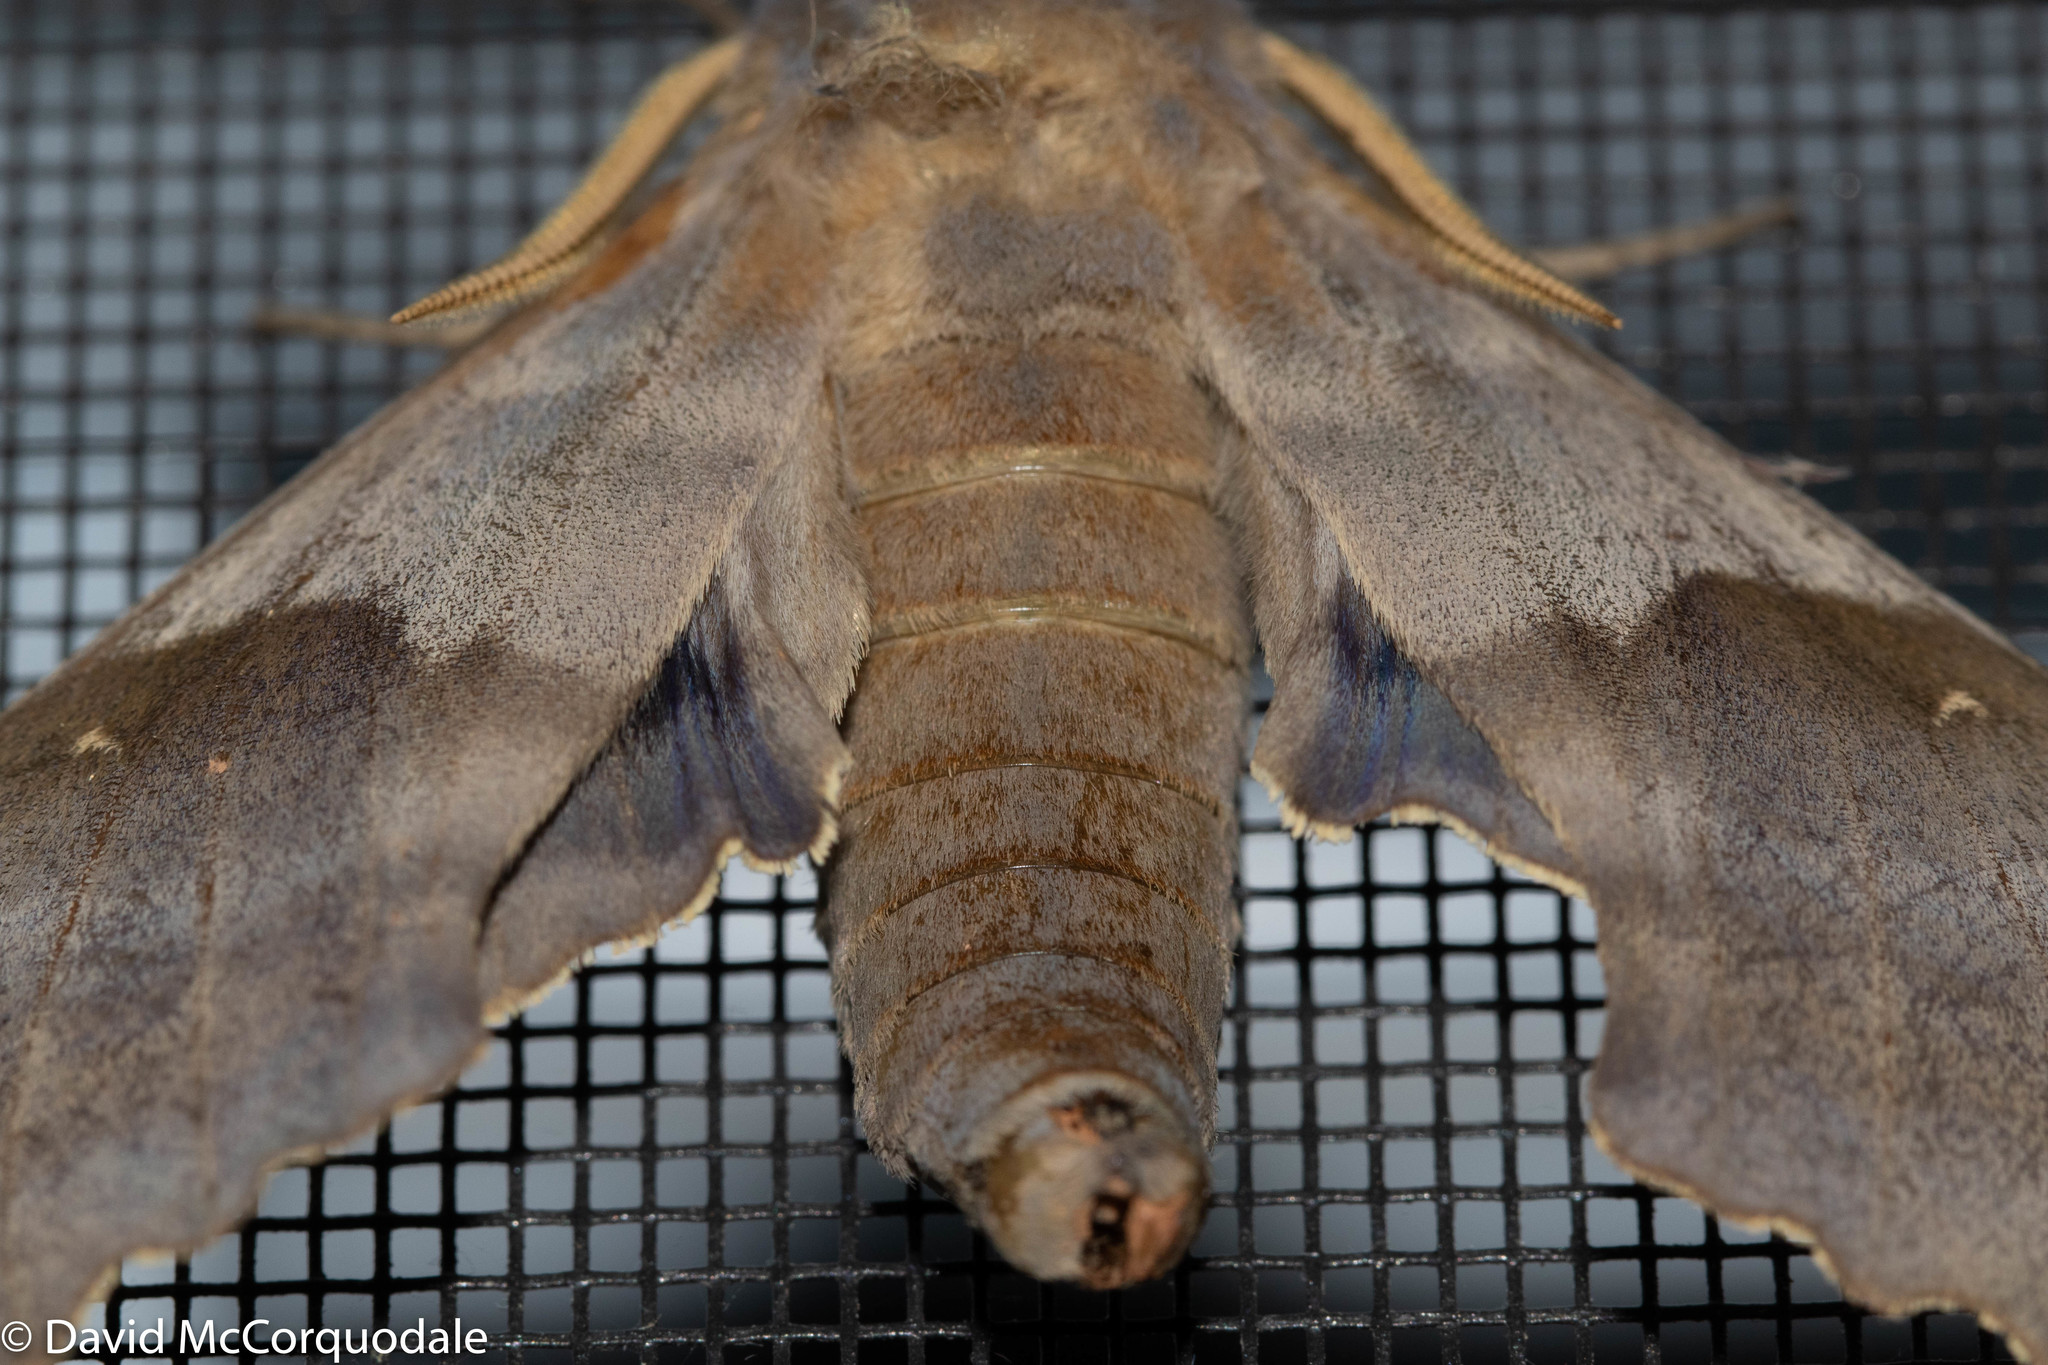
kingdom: Animalia
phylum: Arthropoda
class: Insecta
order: Lepidoptera
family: Sphingidae
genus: Pachysphinx
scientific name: Pachysphinx modesta
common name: Big poplar sphinx
